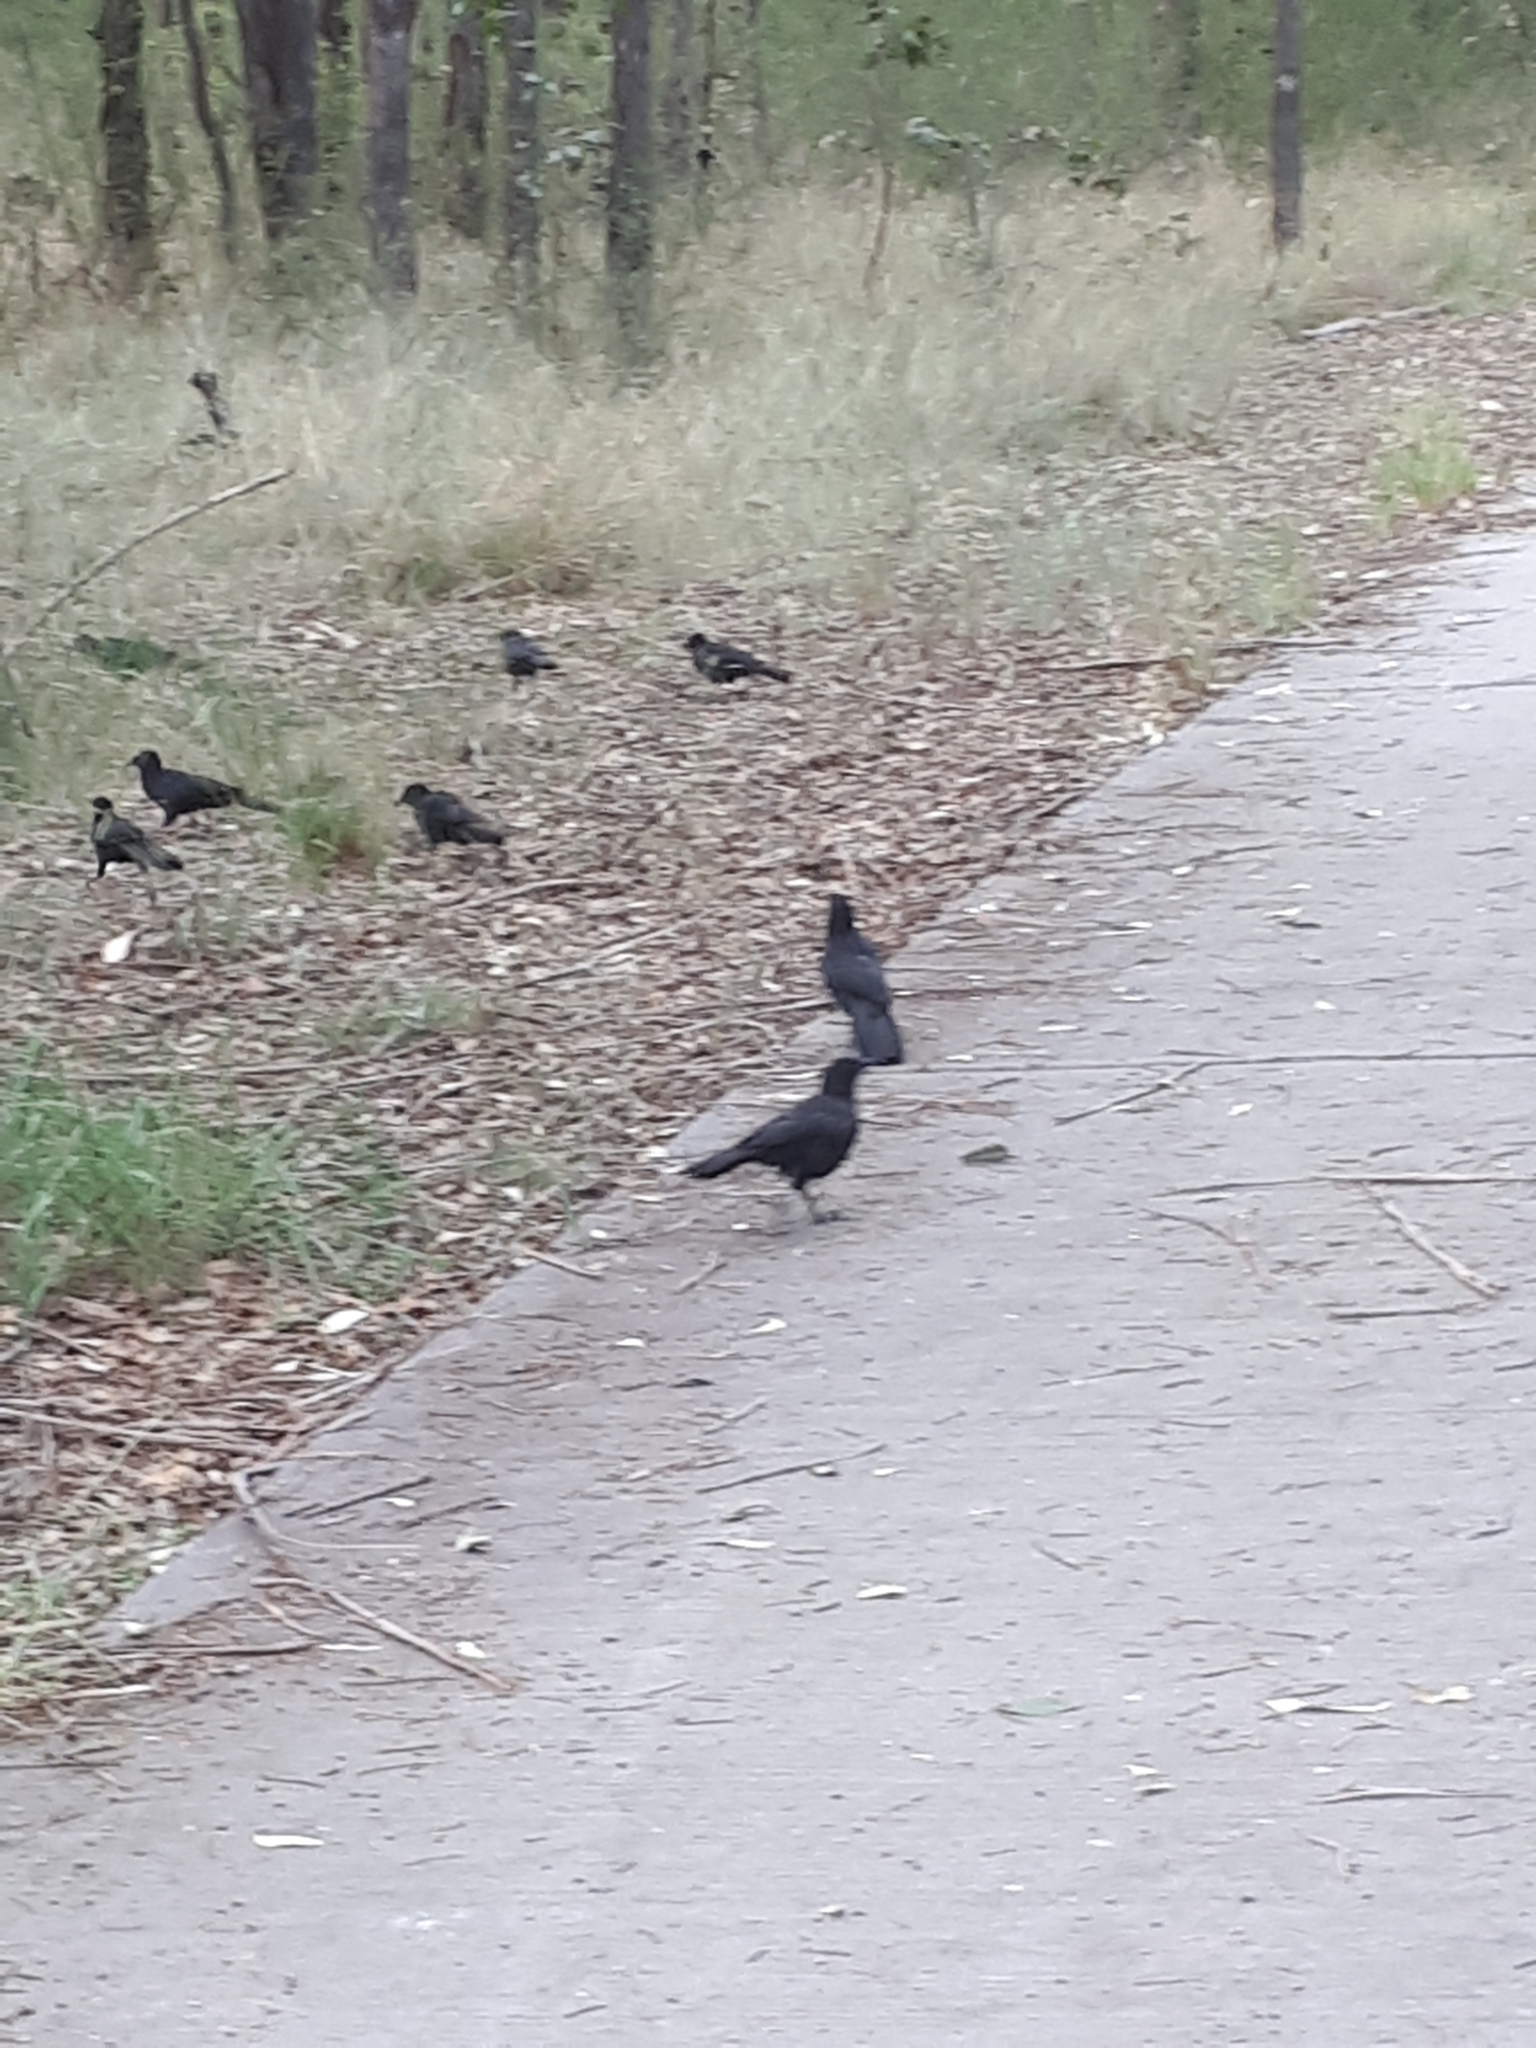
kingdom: Animalia
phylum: Chordata
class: Aves
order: Passeriformes
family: Corcoracidae
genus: Corcorax
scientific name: Corcorax melanoramphos
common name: White-winged chough
